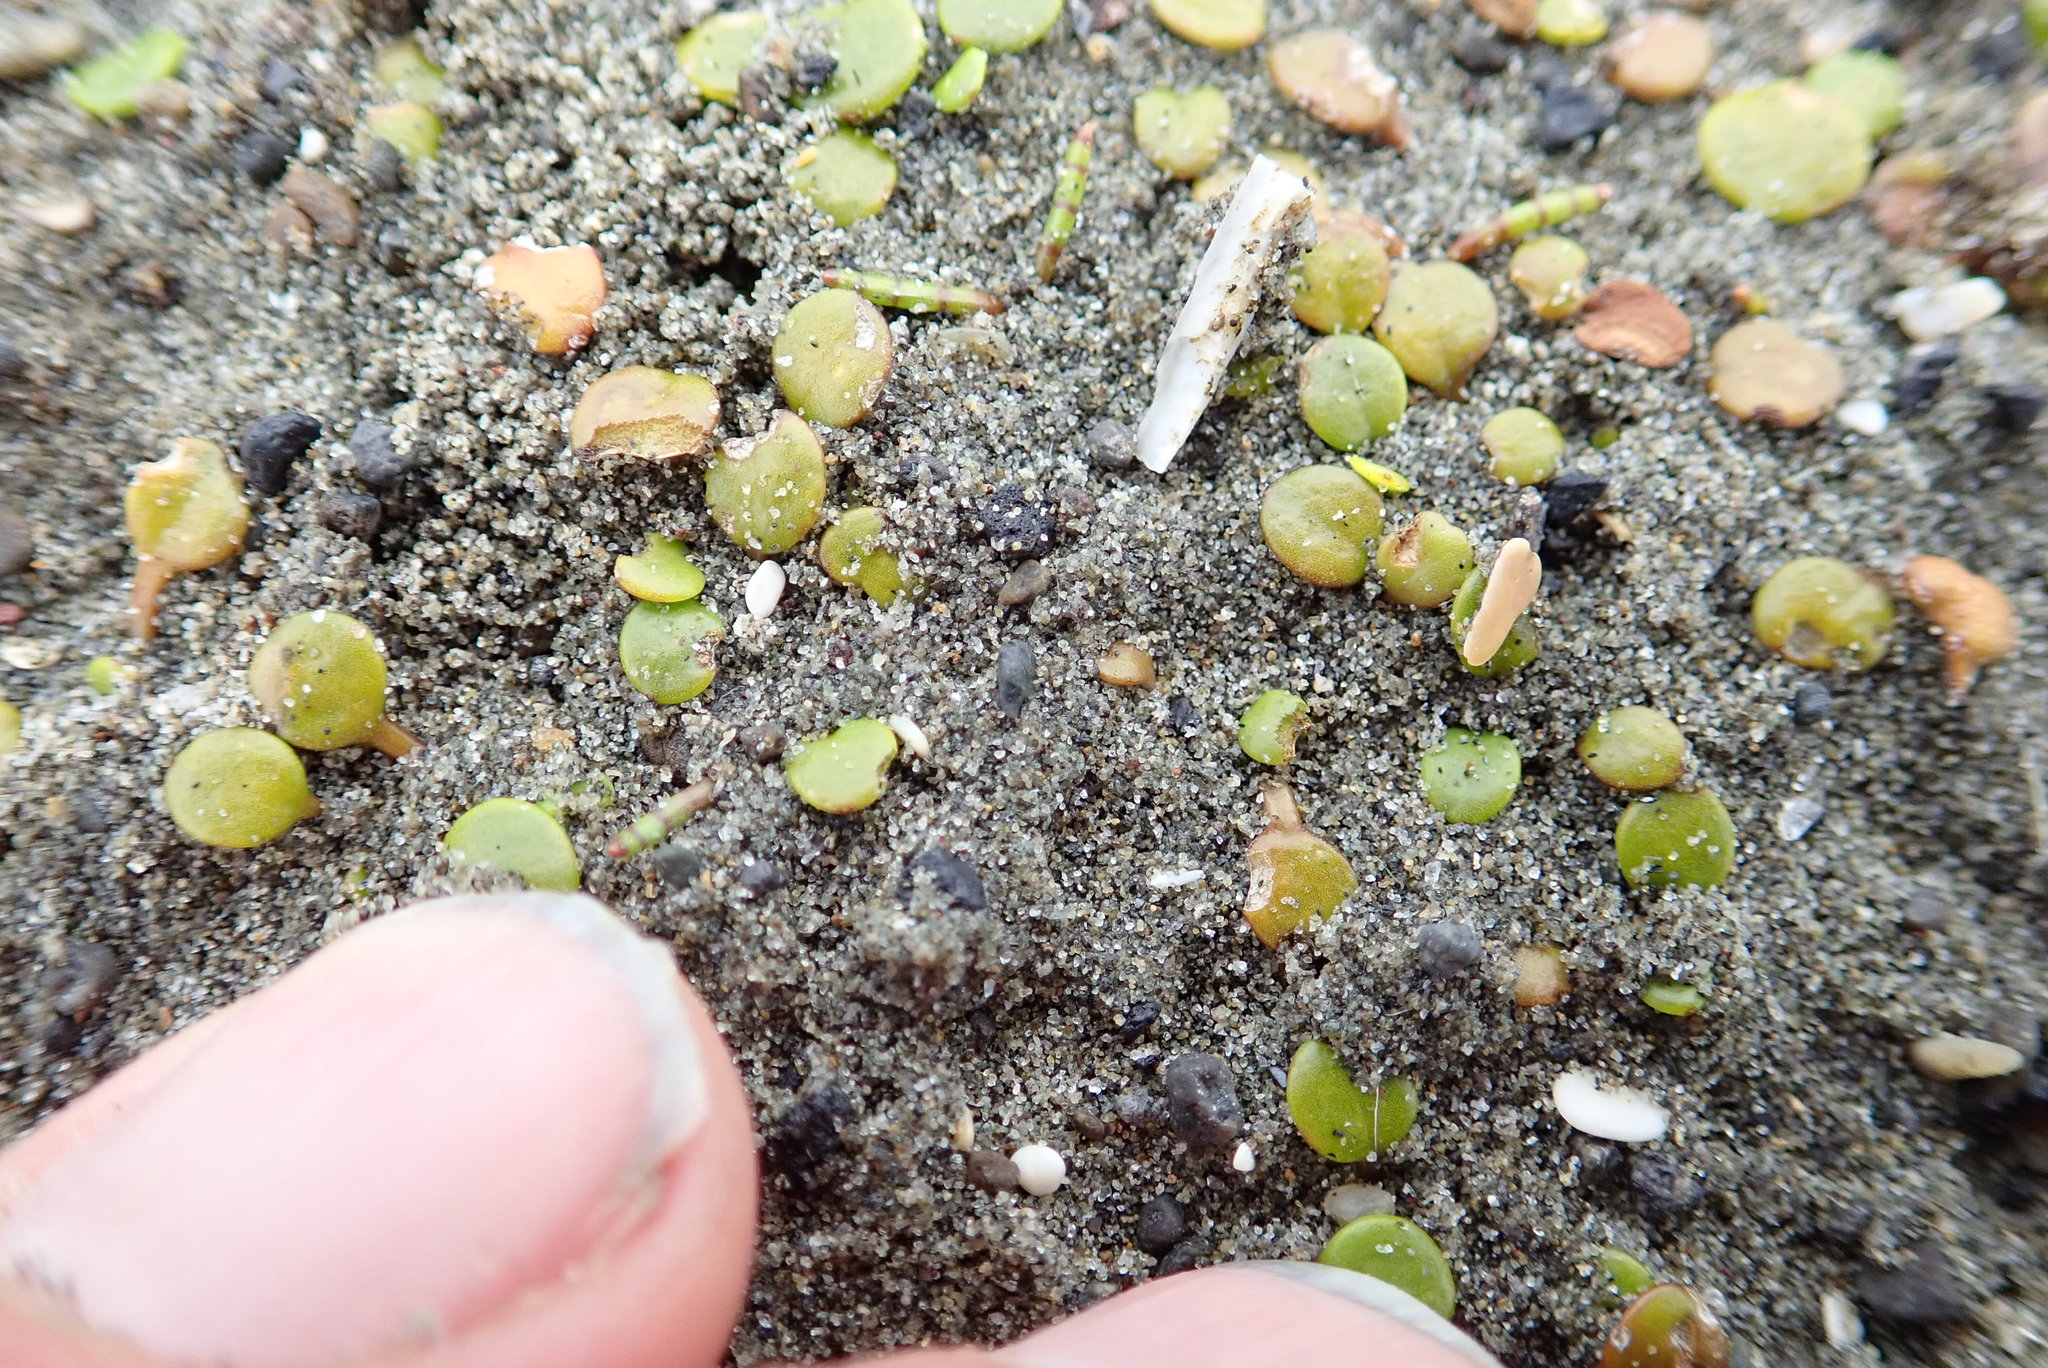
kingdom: Plantae
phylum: Tracheophyta
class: Magnoliopsida
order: Asterales
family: Goodeniaceae
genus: Goodenia
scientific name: Goodenia heenanii
